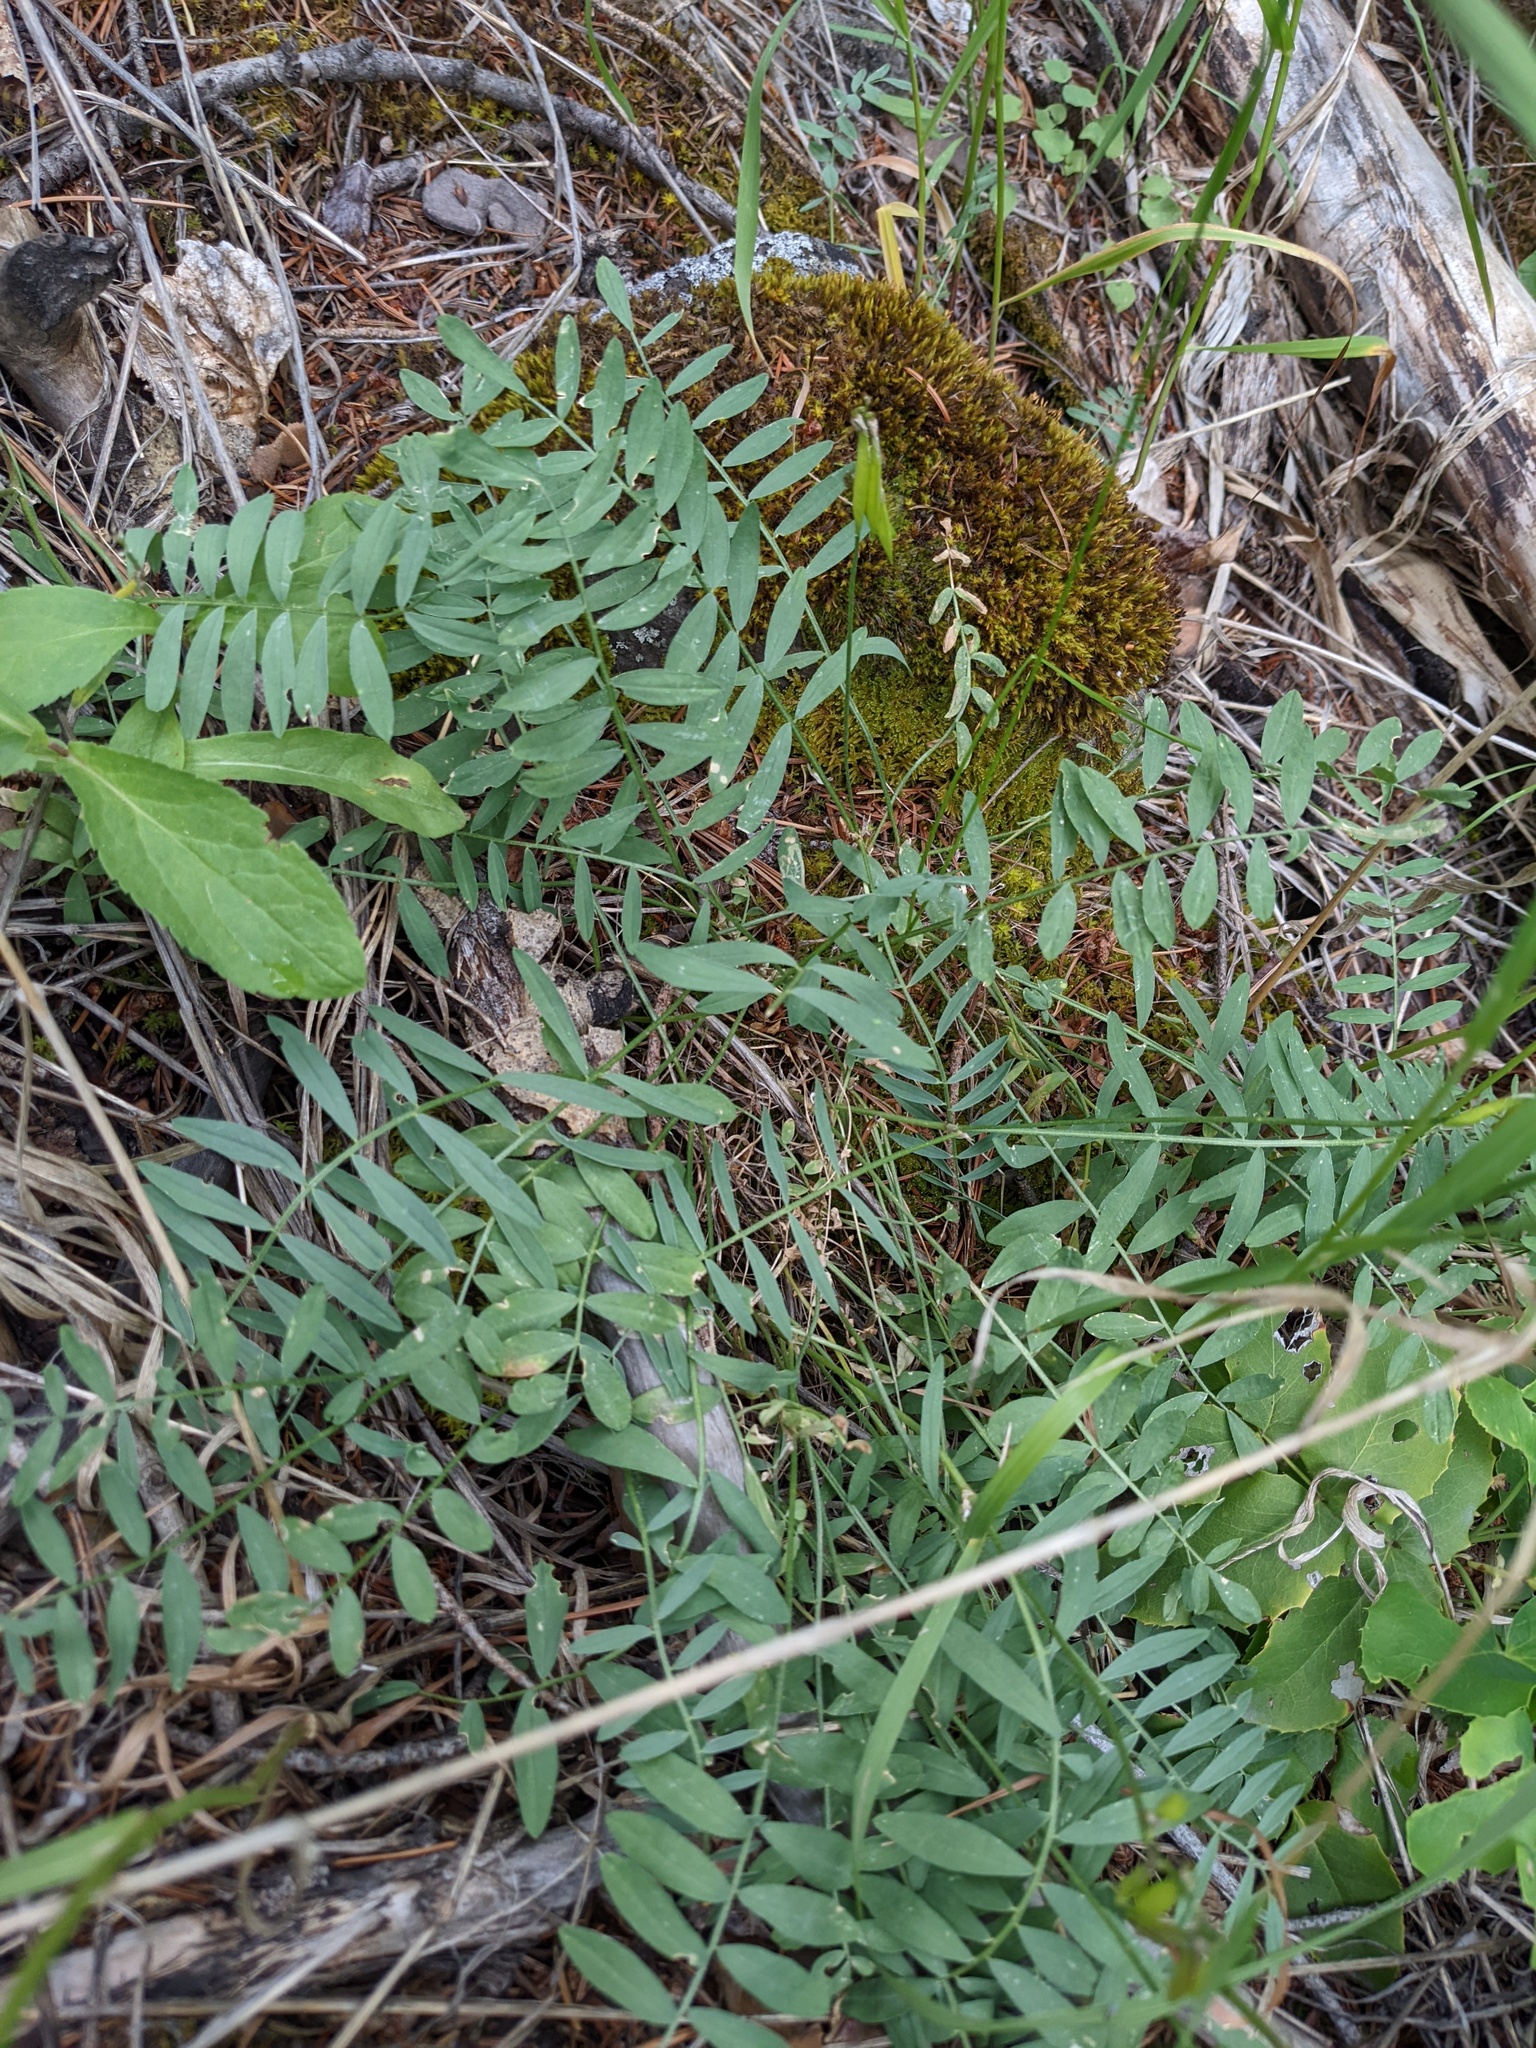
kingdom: Plantae
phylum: Tracheophyta
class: Magnoliopsida
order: Fabales
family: Fabaceae
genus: Astragalus
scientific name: Astragalus miser
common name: Timber milkvetch
